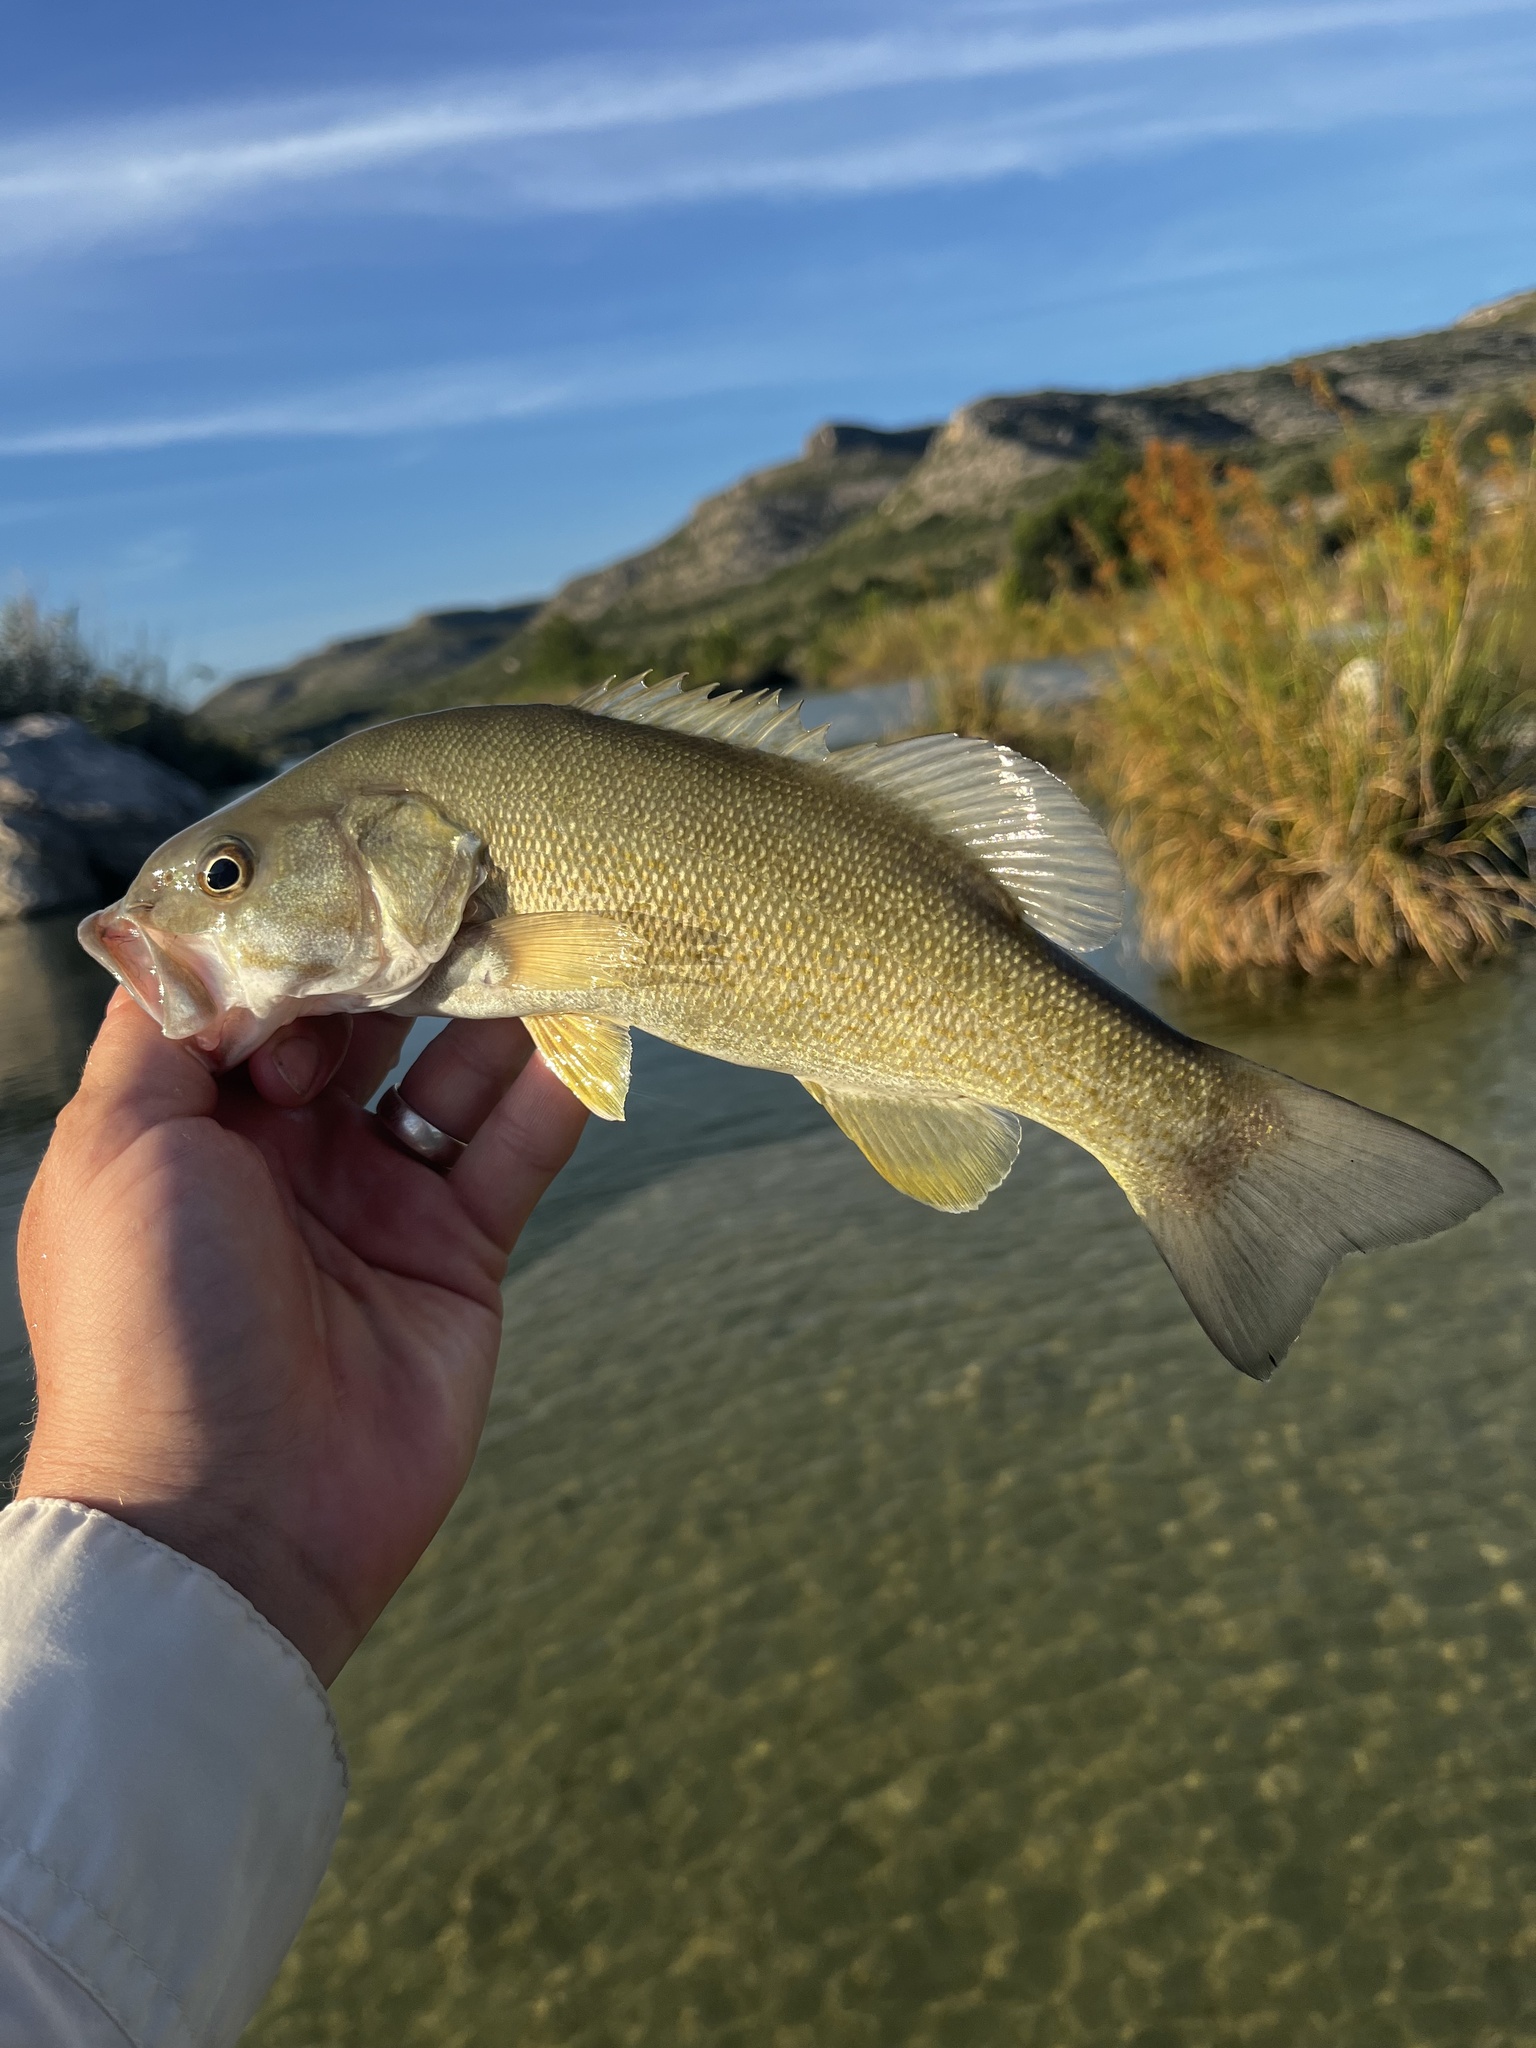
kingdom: Animalia
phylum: Chordata
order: Perciformes
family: Centrarchidae
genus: Micropterus
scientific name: Micropterus dolomieu
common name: Smallmouth bass
